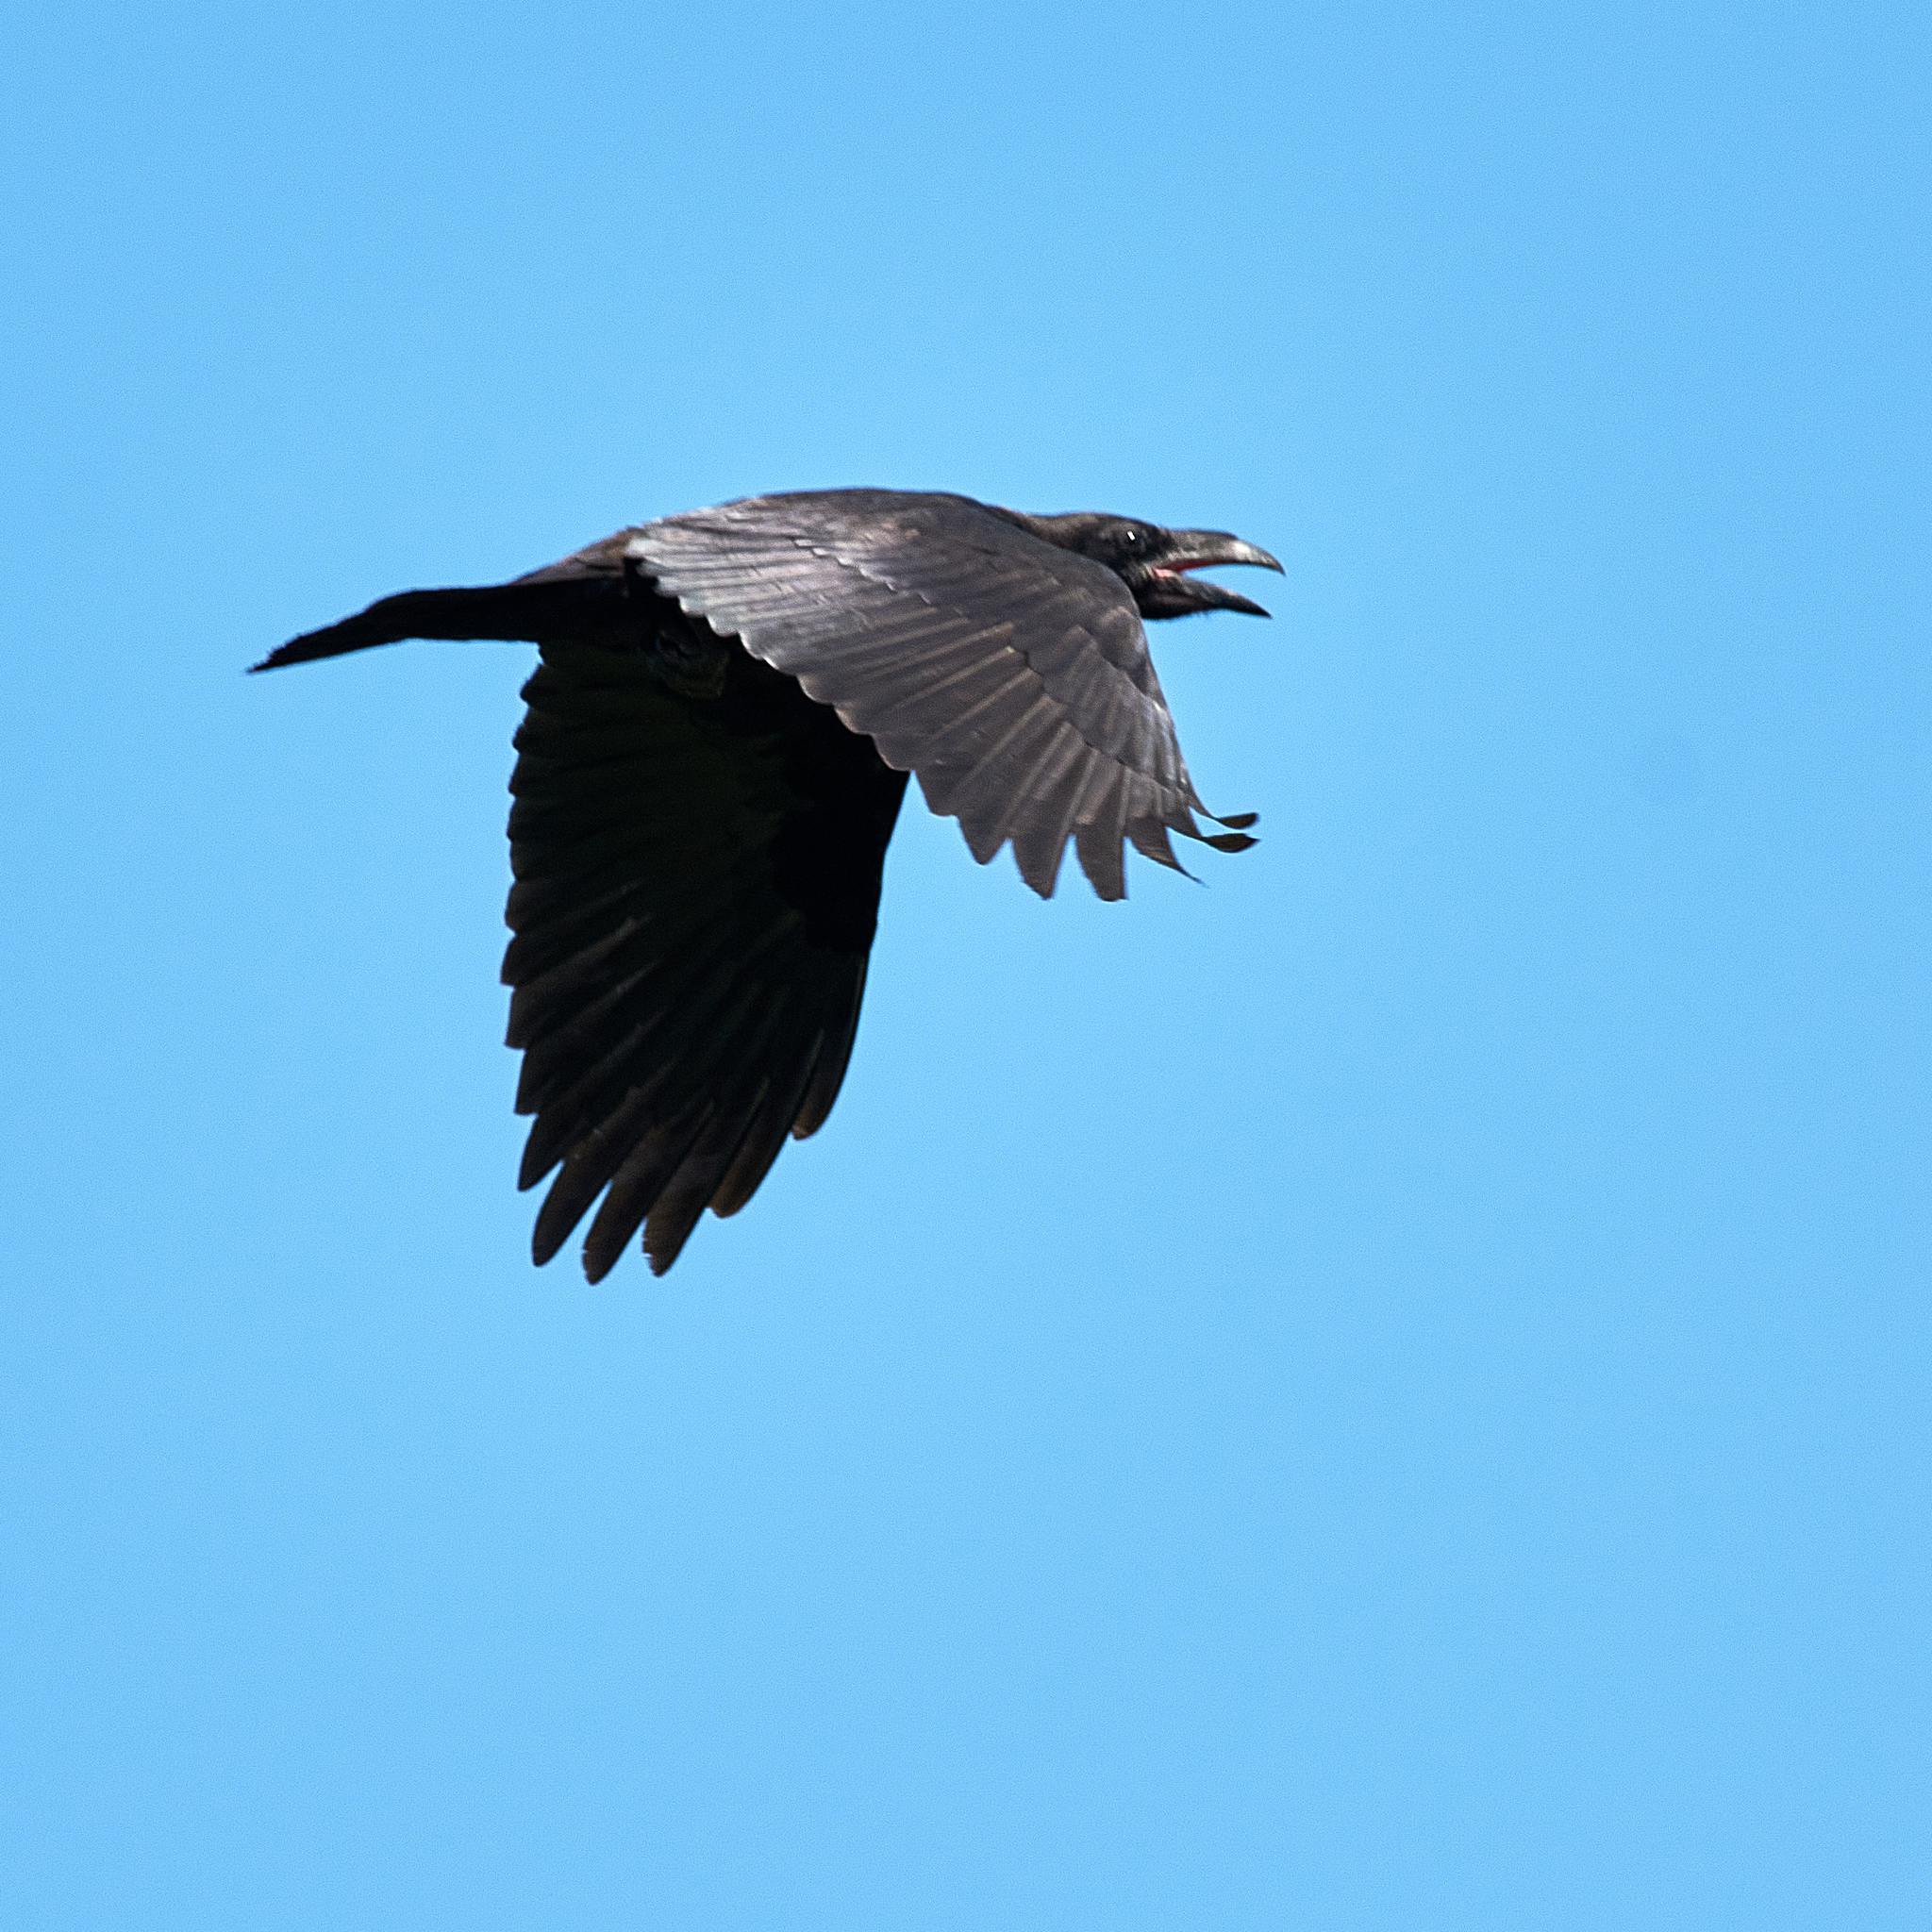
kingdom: Animalia
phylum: Chordata
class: Aves
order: Passeriformes
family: Corvidae
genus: Corvus
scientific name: Corvus corax
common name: Common raven
